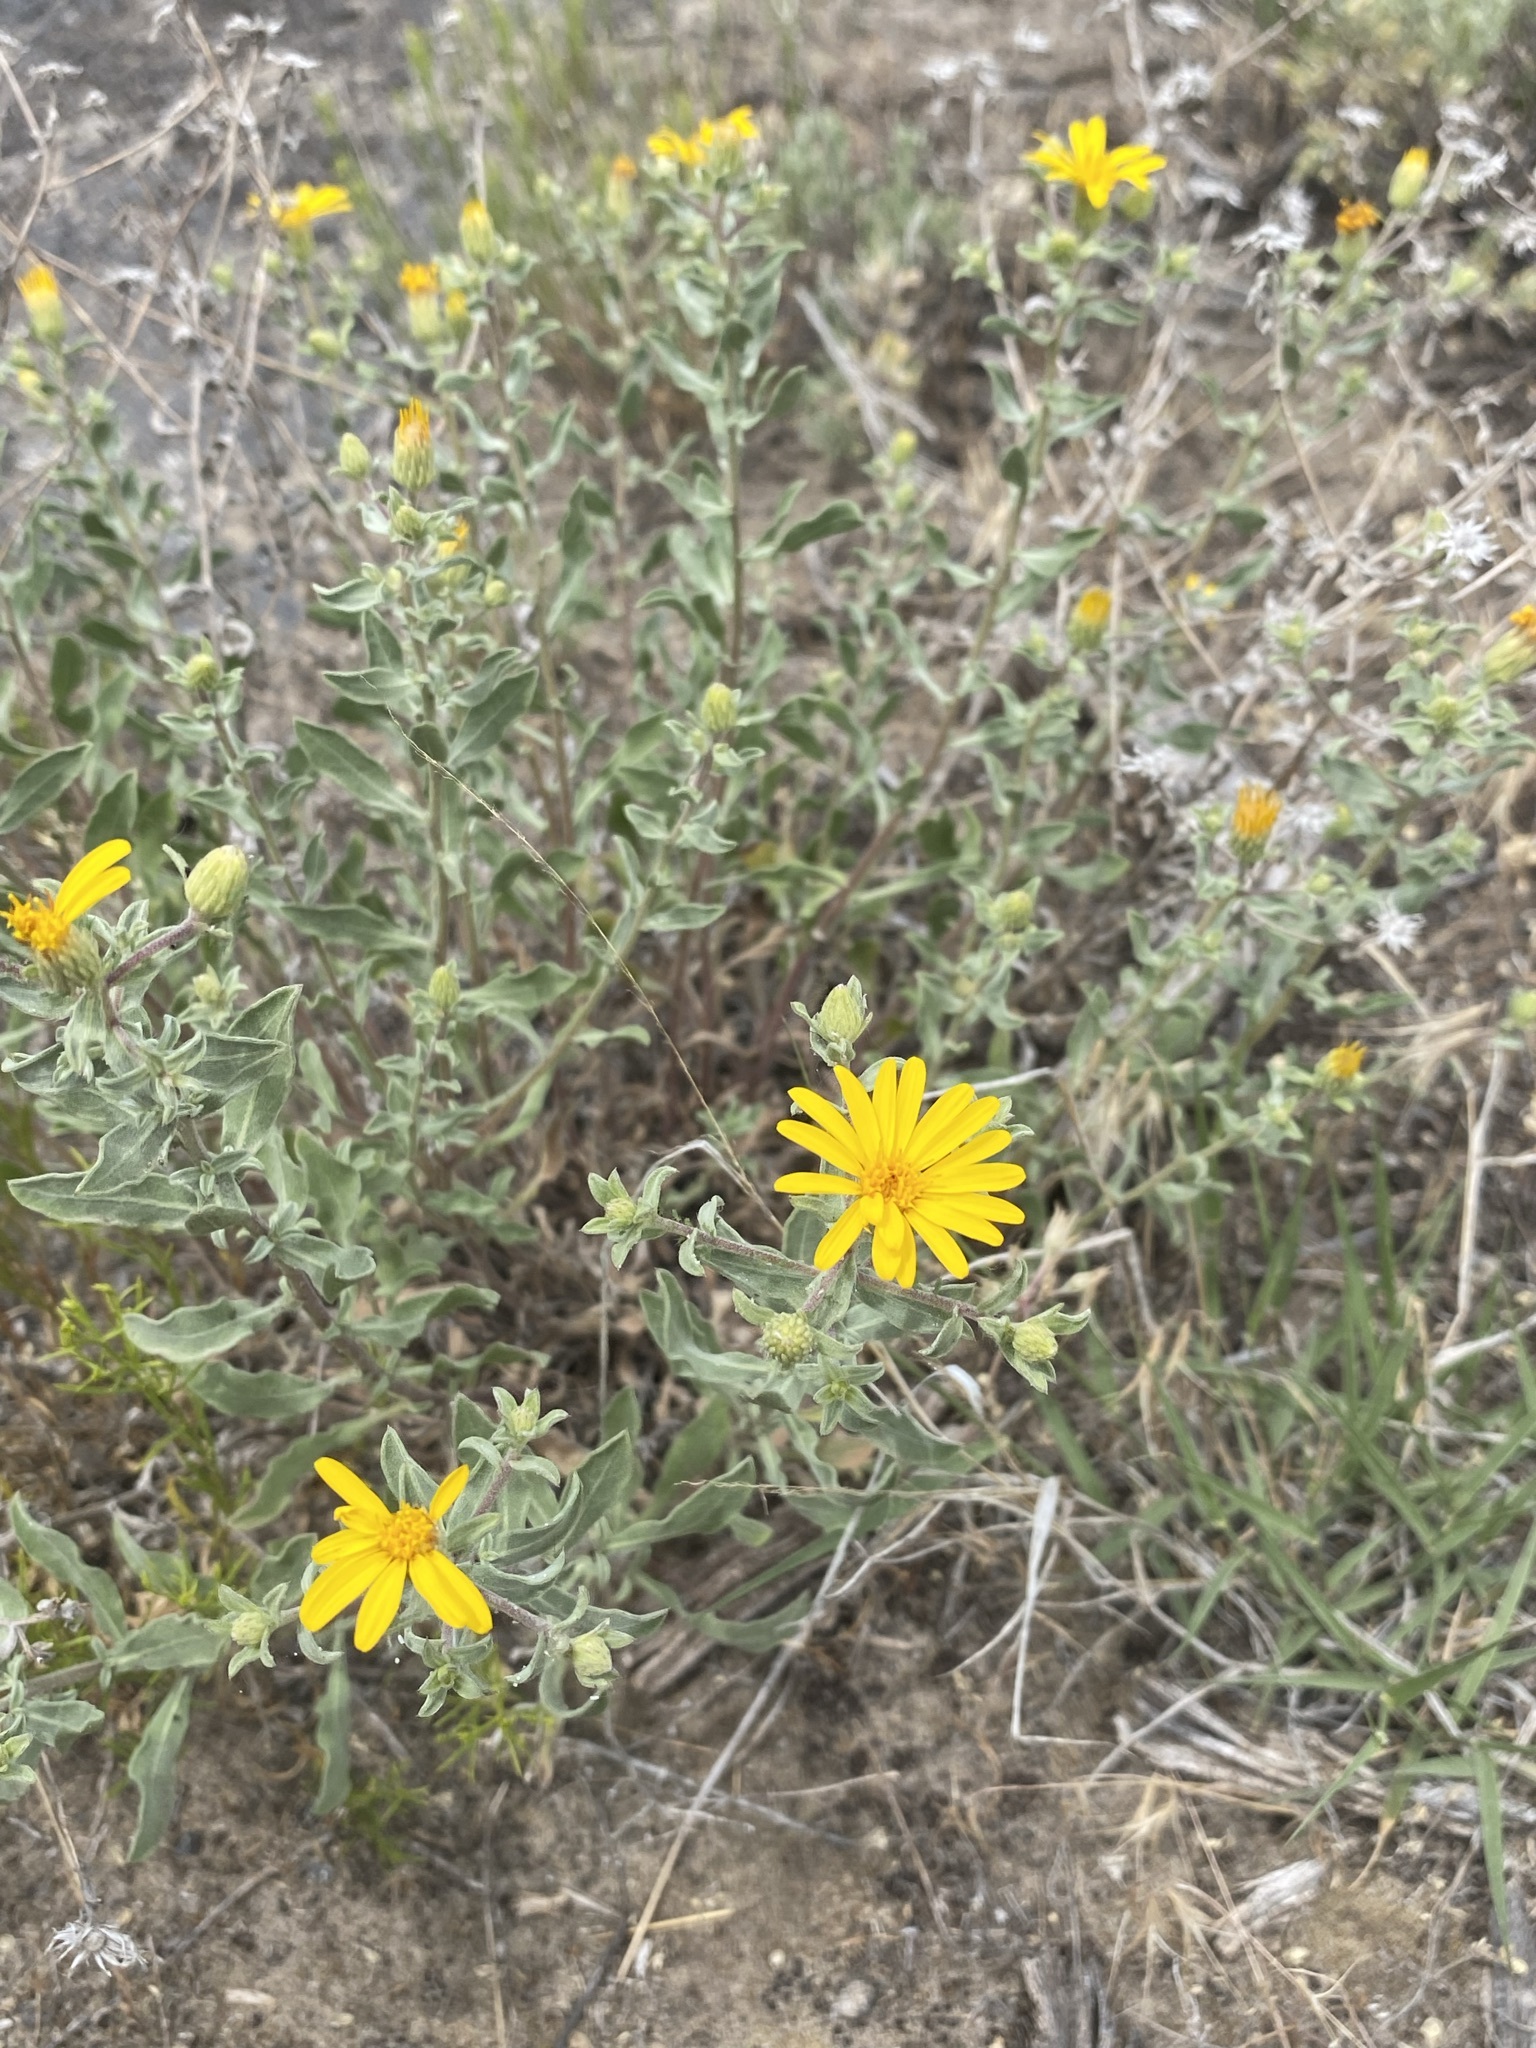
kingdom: Plantae
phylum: Tracheophyta
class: Magnoliopsida
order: Asterales
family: Asteraceae
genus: Heterotheca
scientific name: Heterotheca depressa
